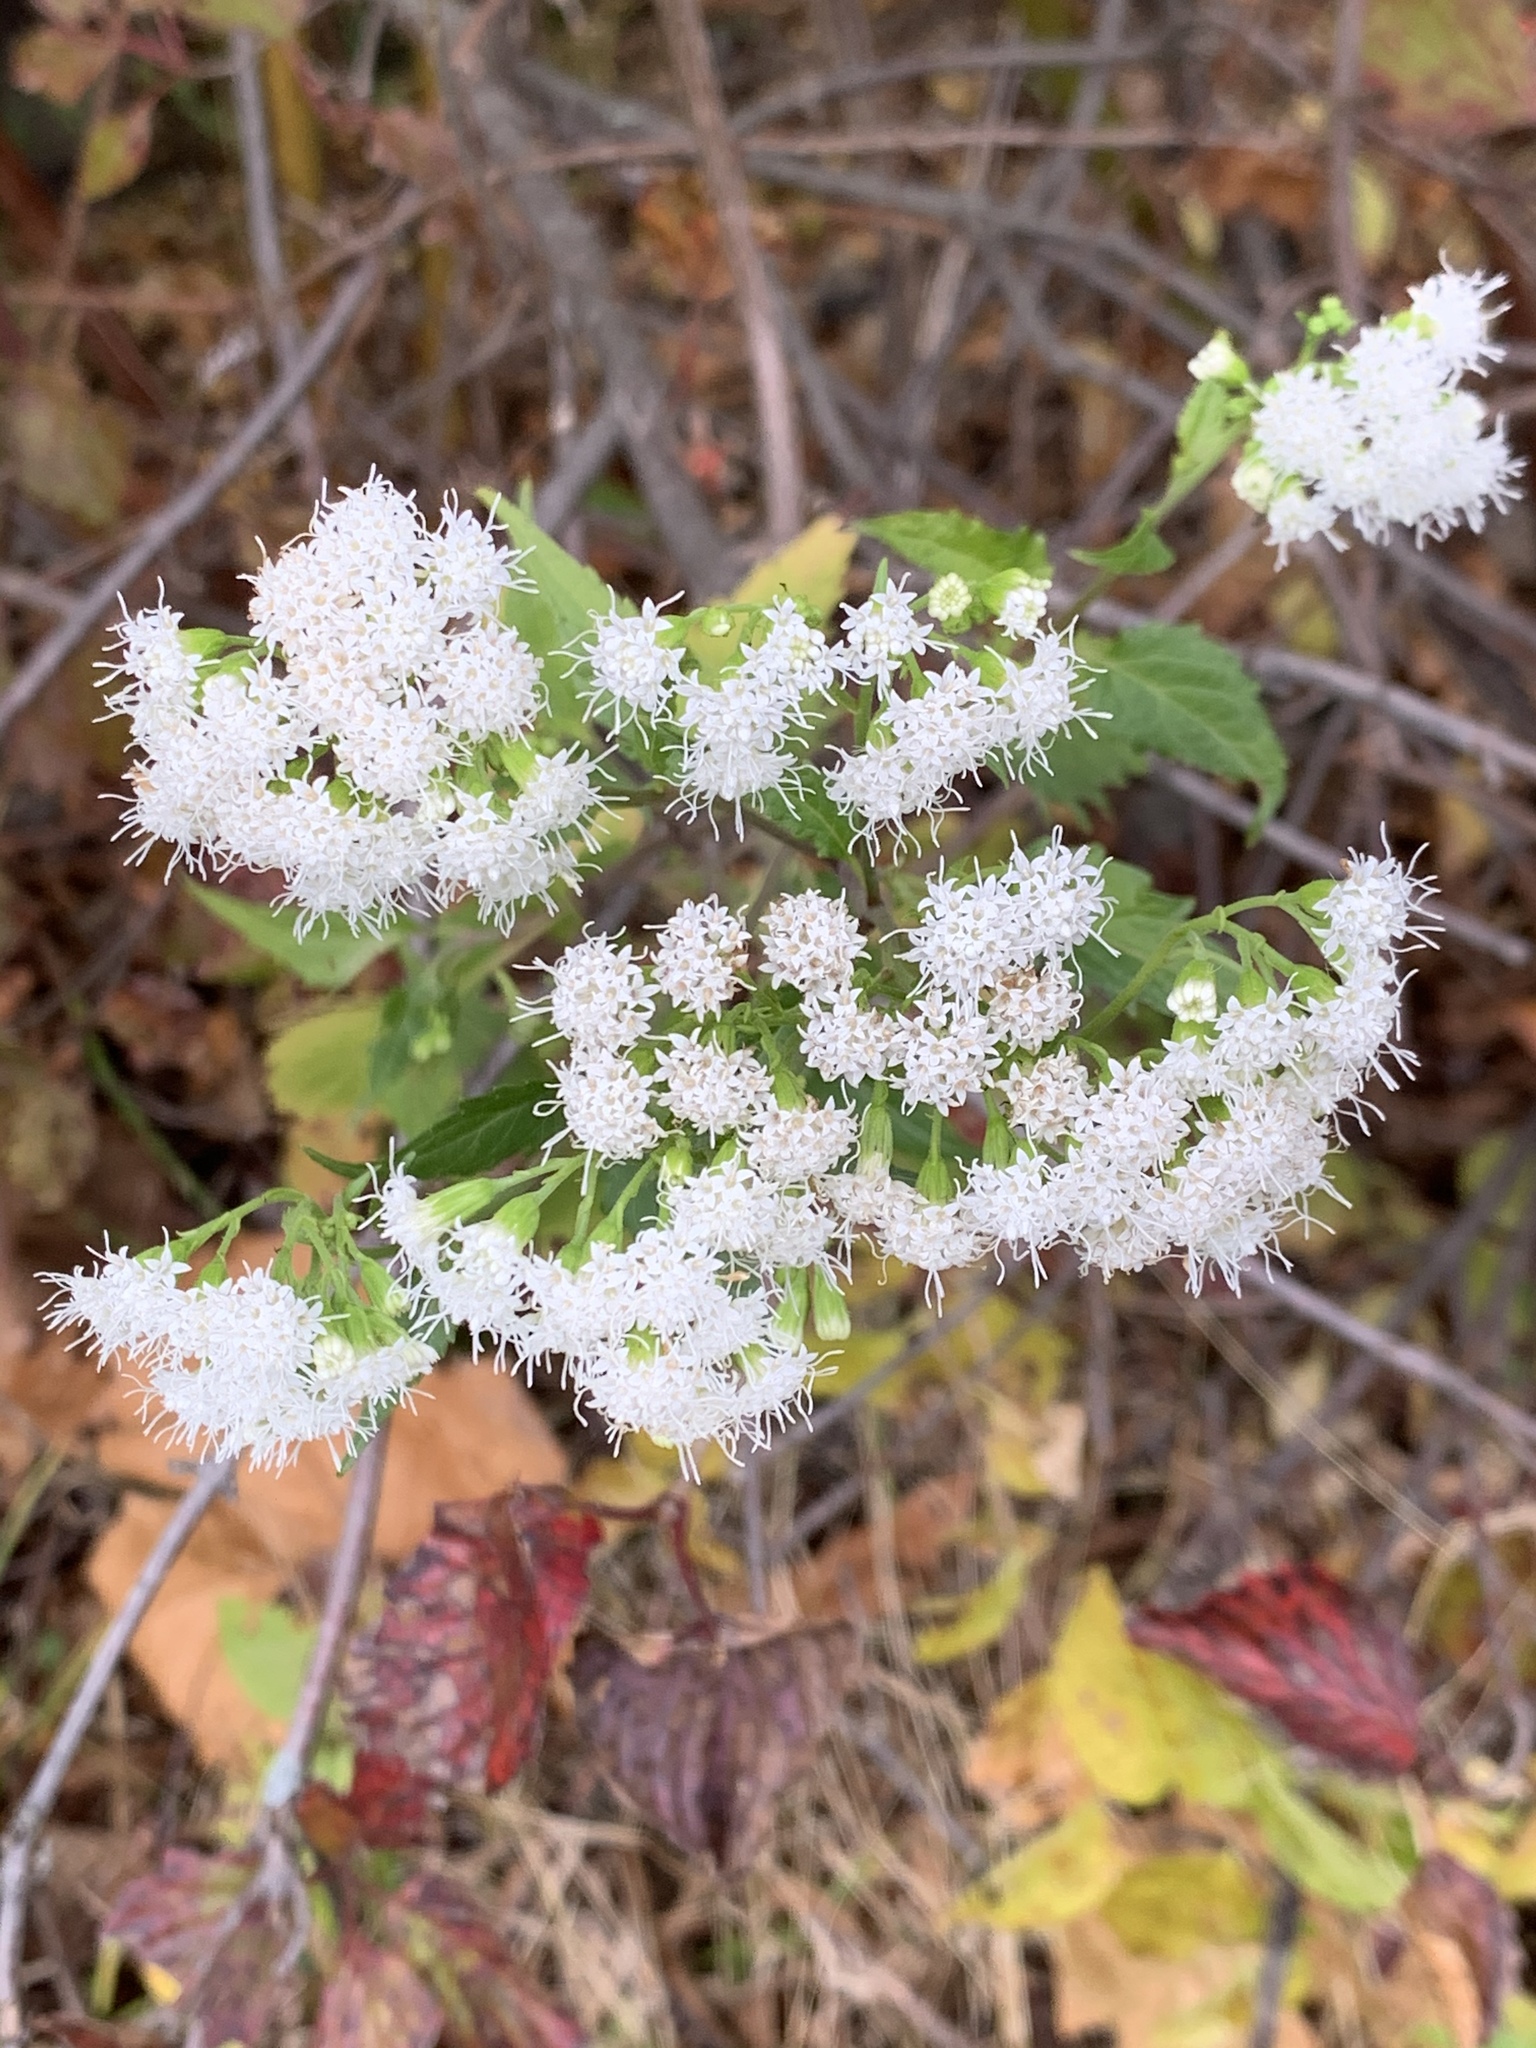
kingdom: Plantae
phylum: Tracheophyta
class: Magnoliopsida
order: Asterales
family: Asteraceae
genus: Ageratina
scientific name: Ageratina altissima
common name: White snakeroot
